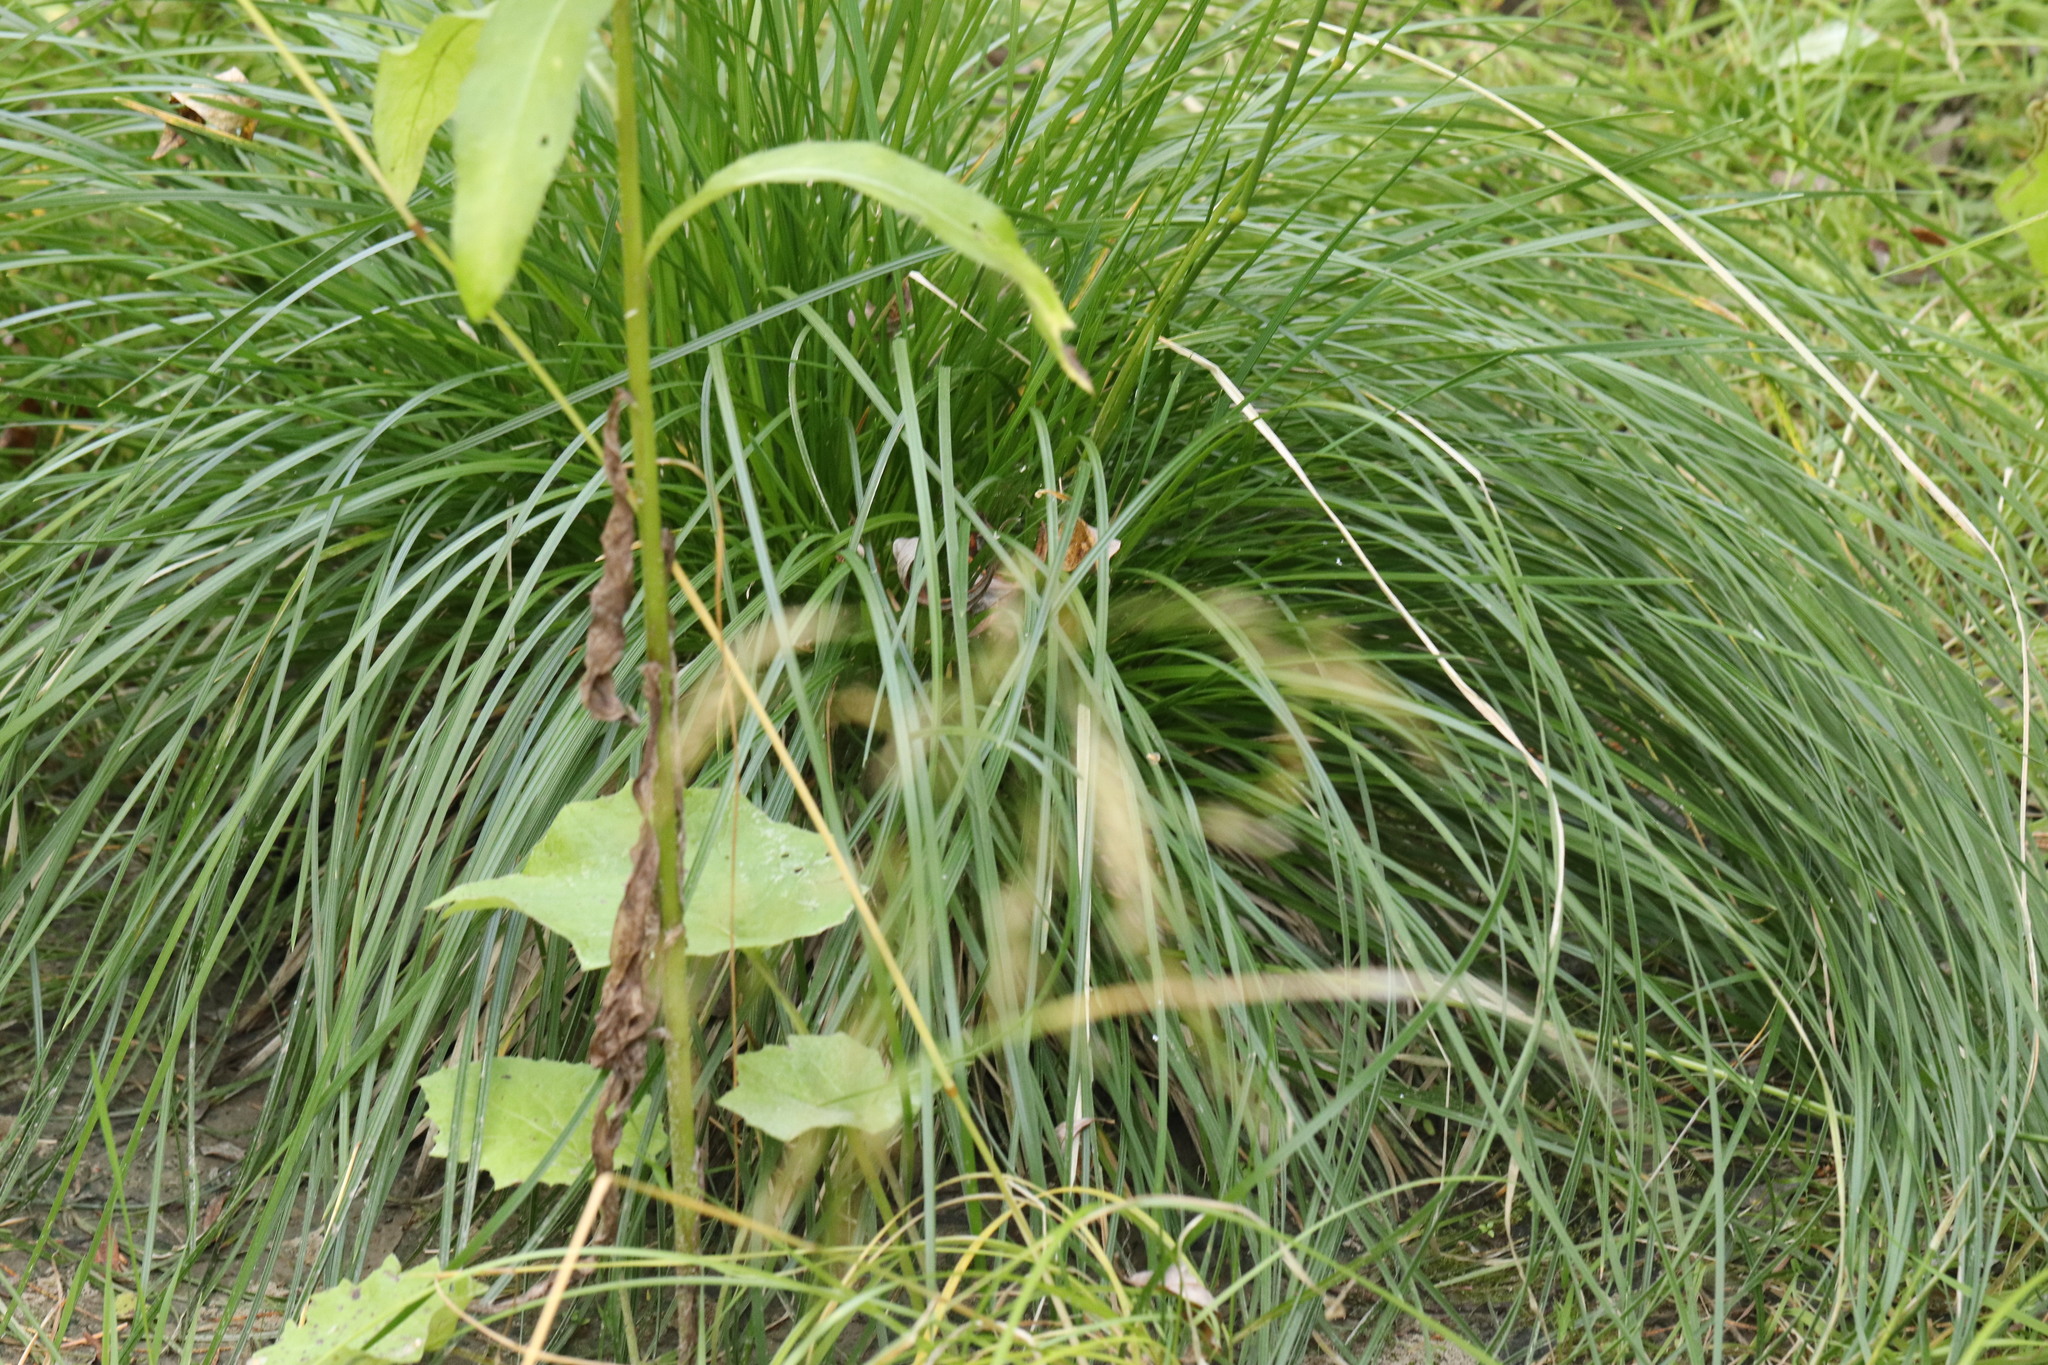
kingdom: Plantae
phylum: Tracheophyta
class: Liliopsida
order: Poales
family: Poaceae
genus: Deschampsia
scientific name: Deschampsia cespitosa
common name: Tufted hair-grass
